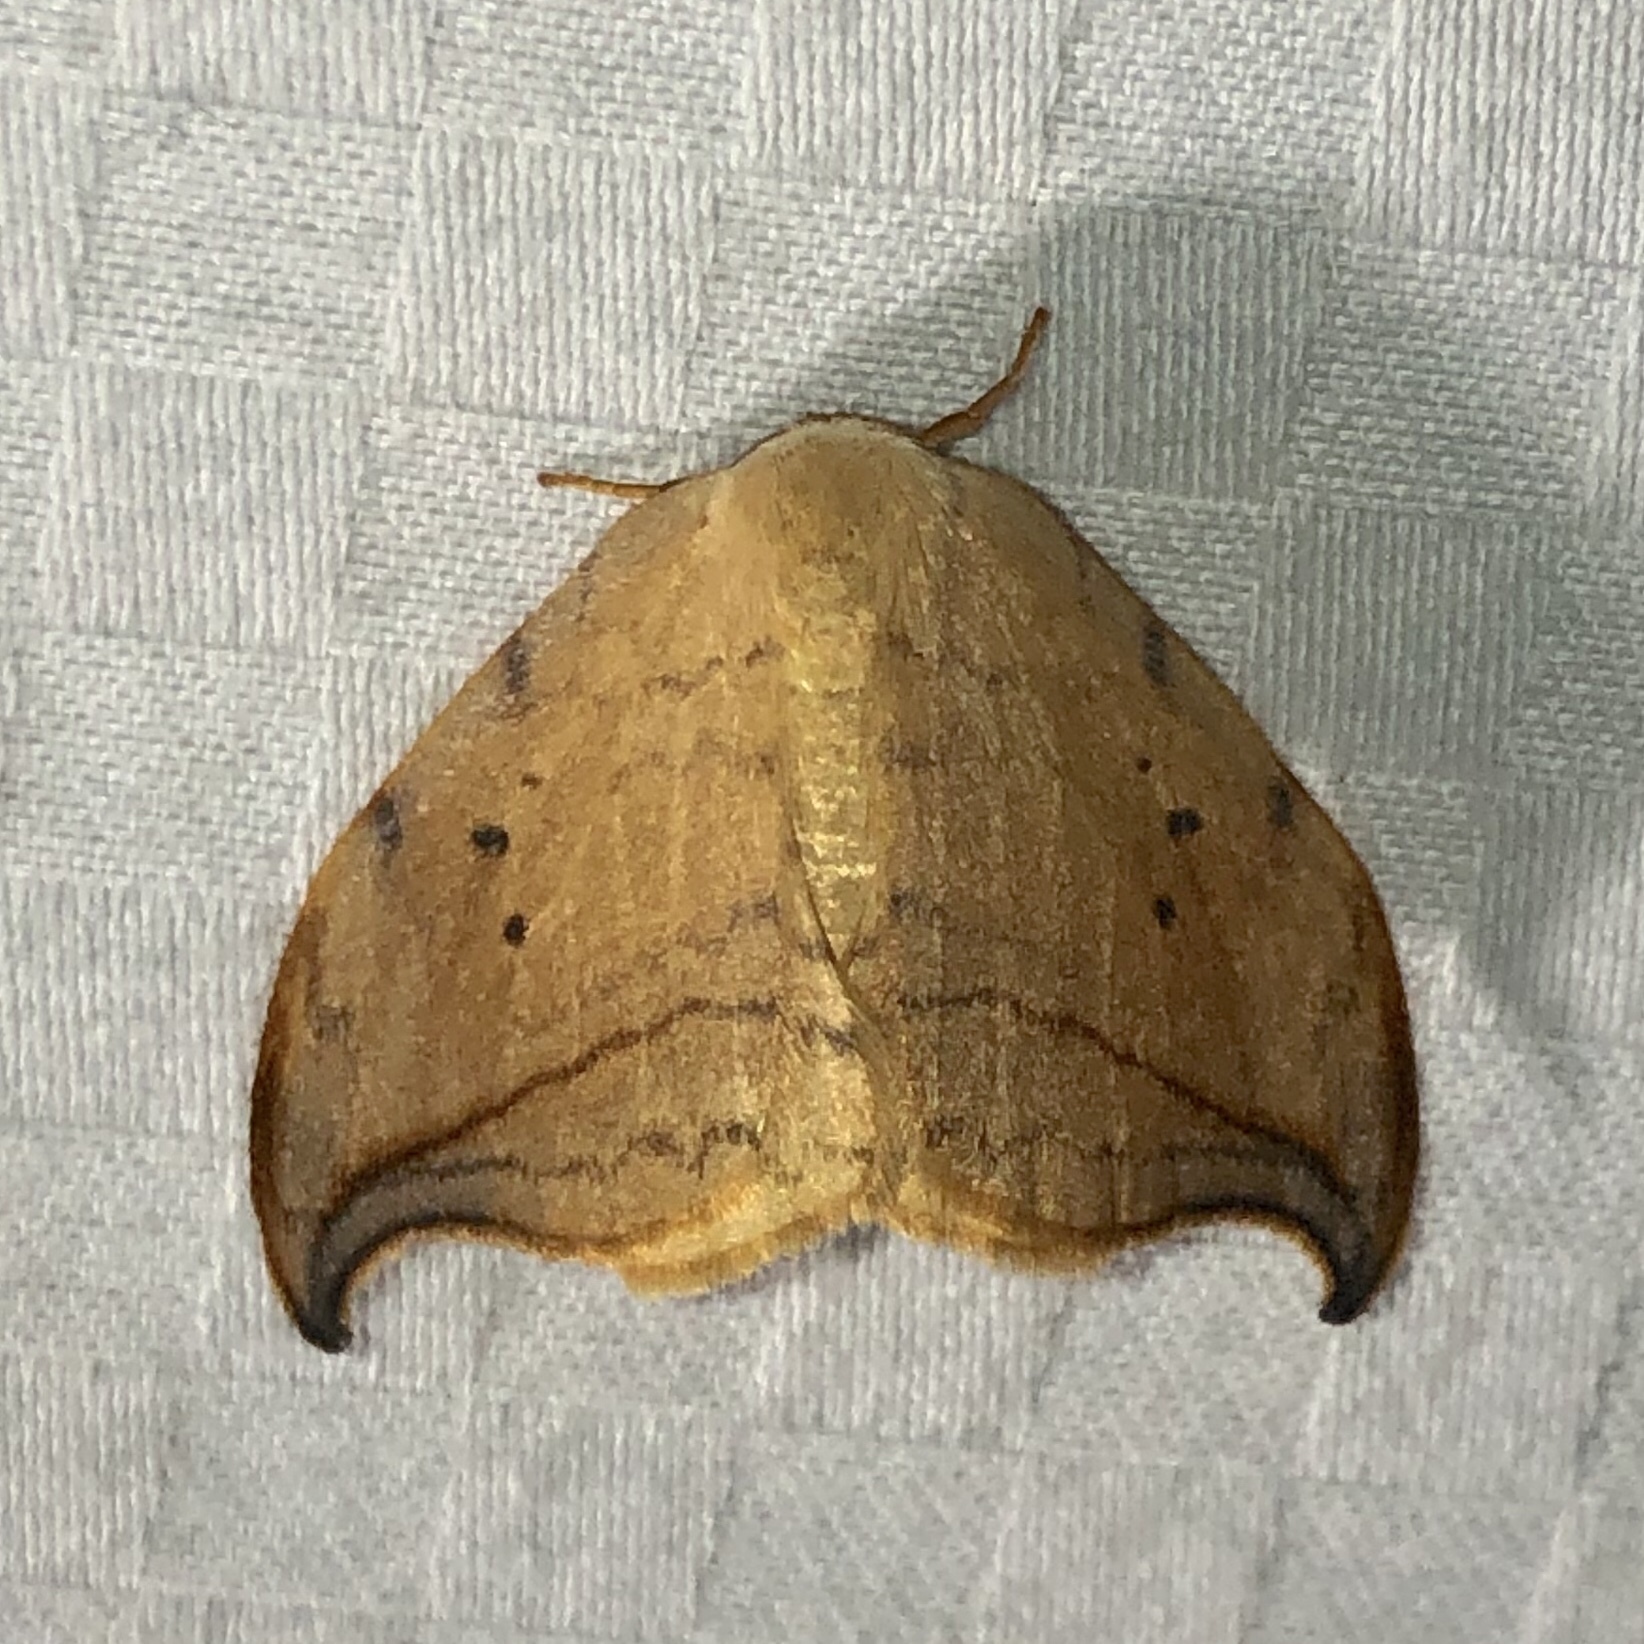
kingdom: Animalia
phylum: Arthropoda
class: Insecta
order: Lepidoptera
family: Drepanidae
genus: Drepana
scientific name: Drepana arcuata
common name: Arched hooktip moth
